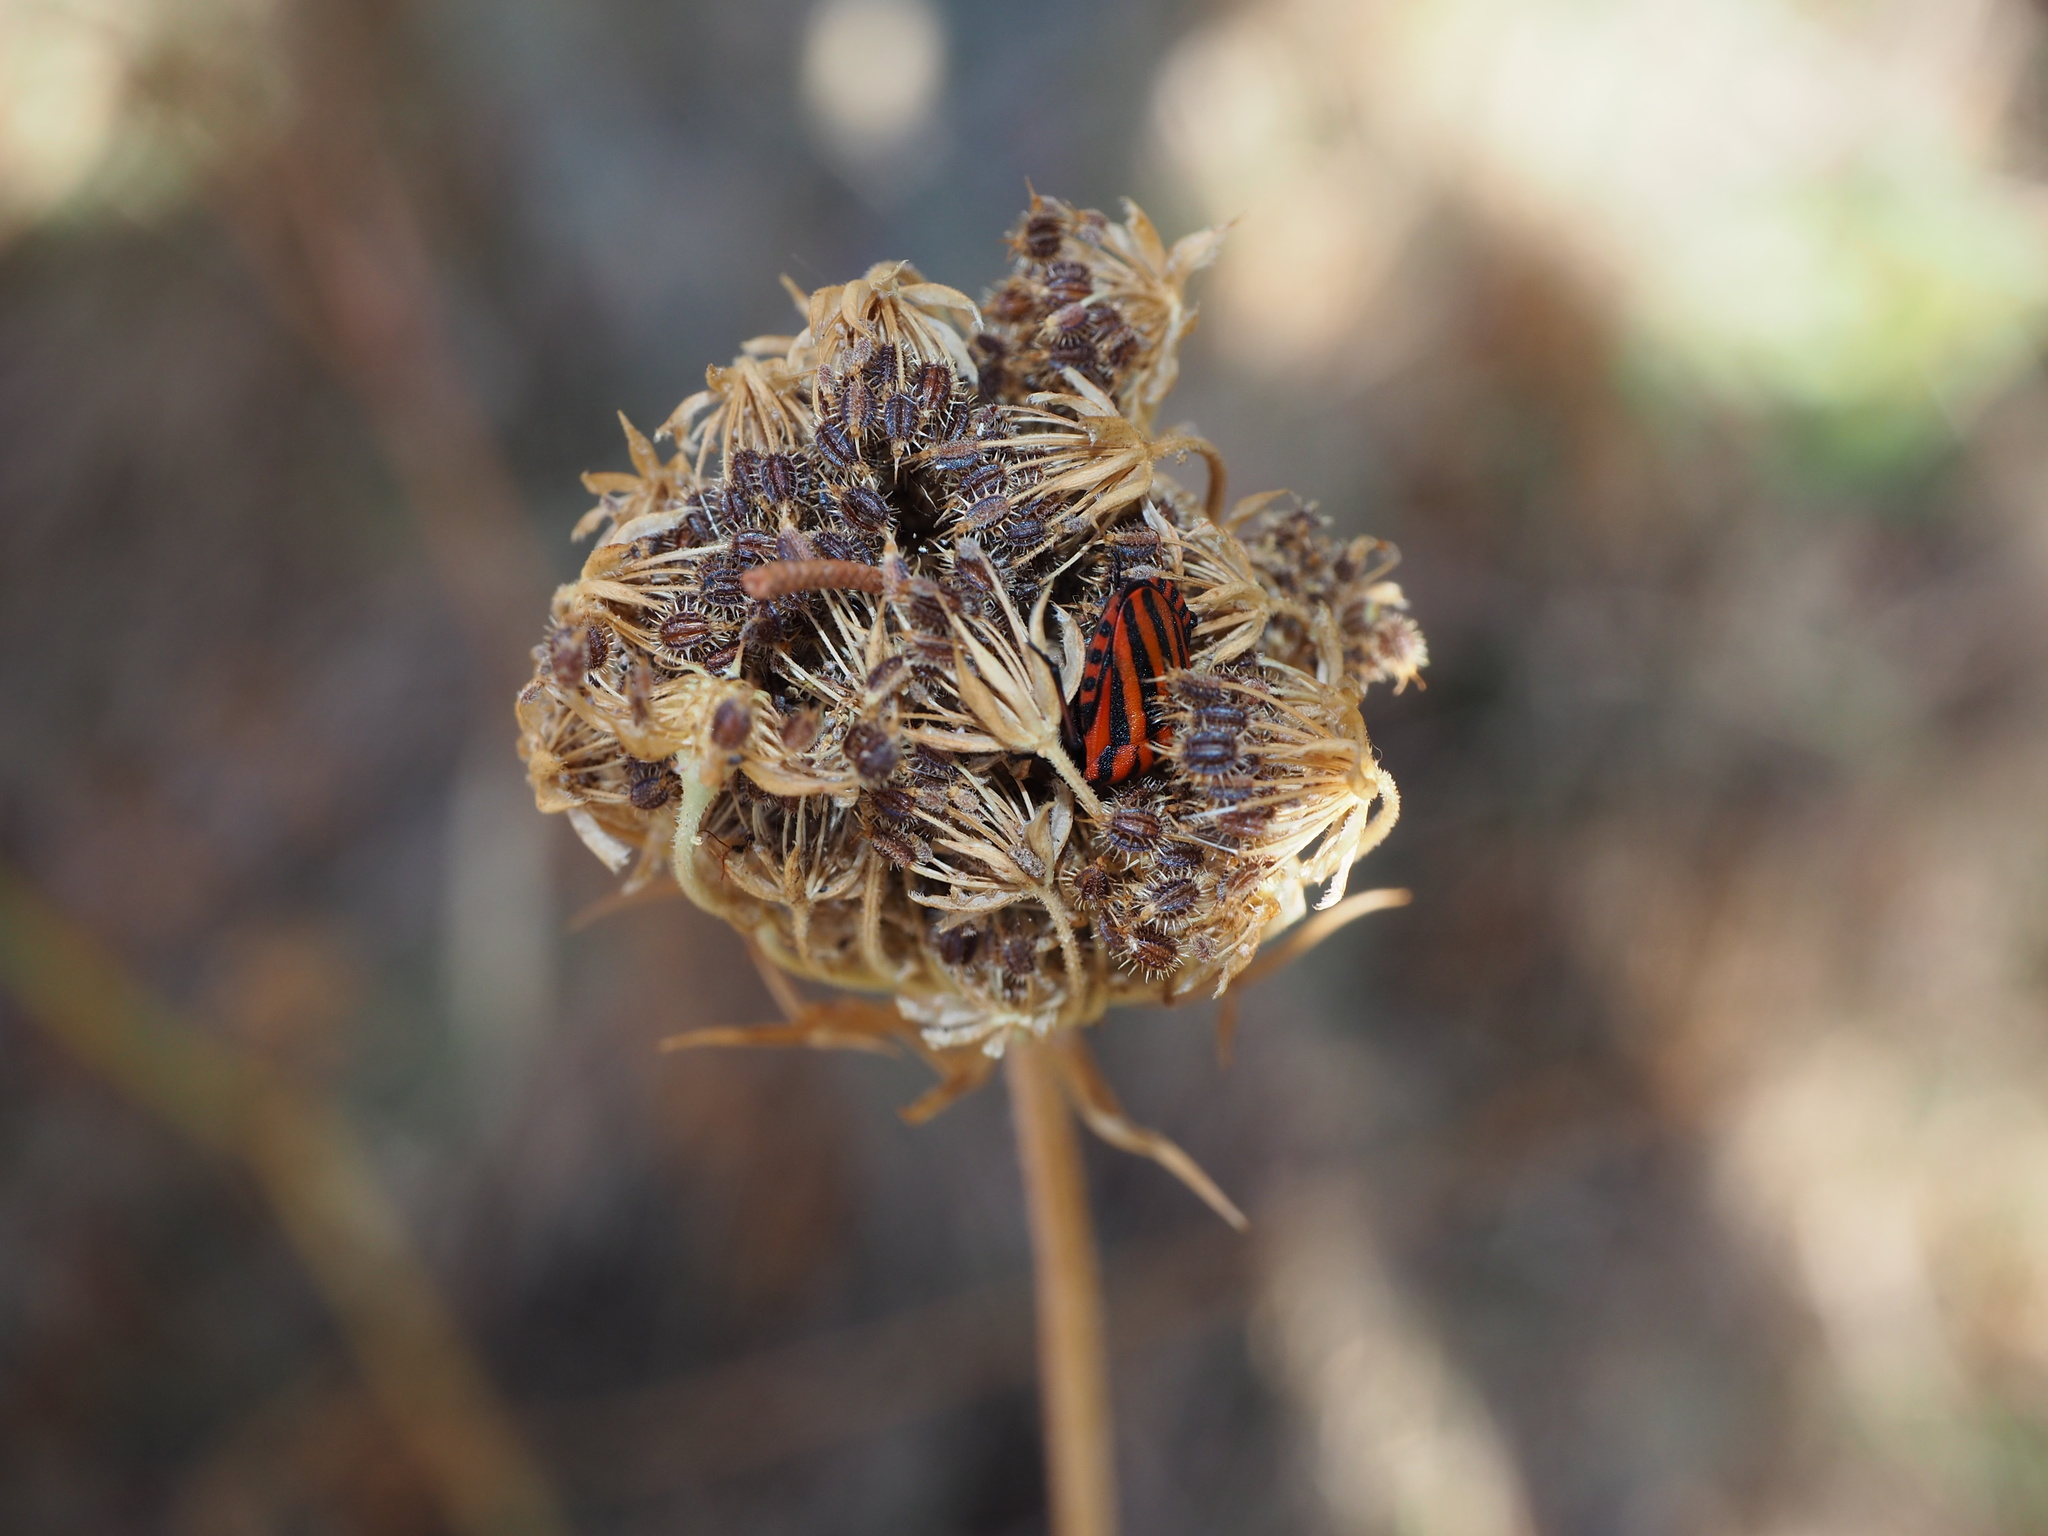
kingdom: Animalia
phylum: Arthropoda
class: Insecta
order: Hemiptera
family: Pentatomidae
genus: Graphosoma
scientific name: Graphosoma italicum
